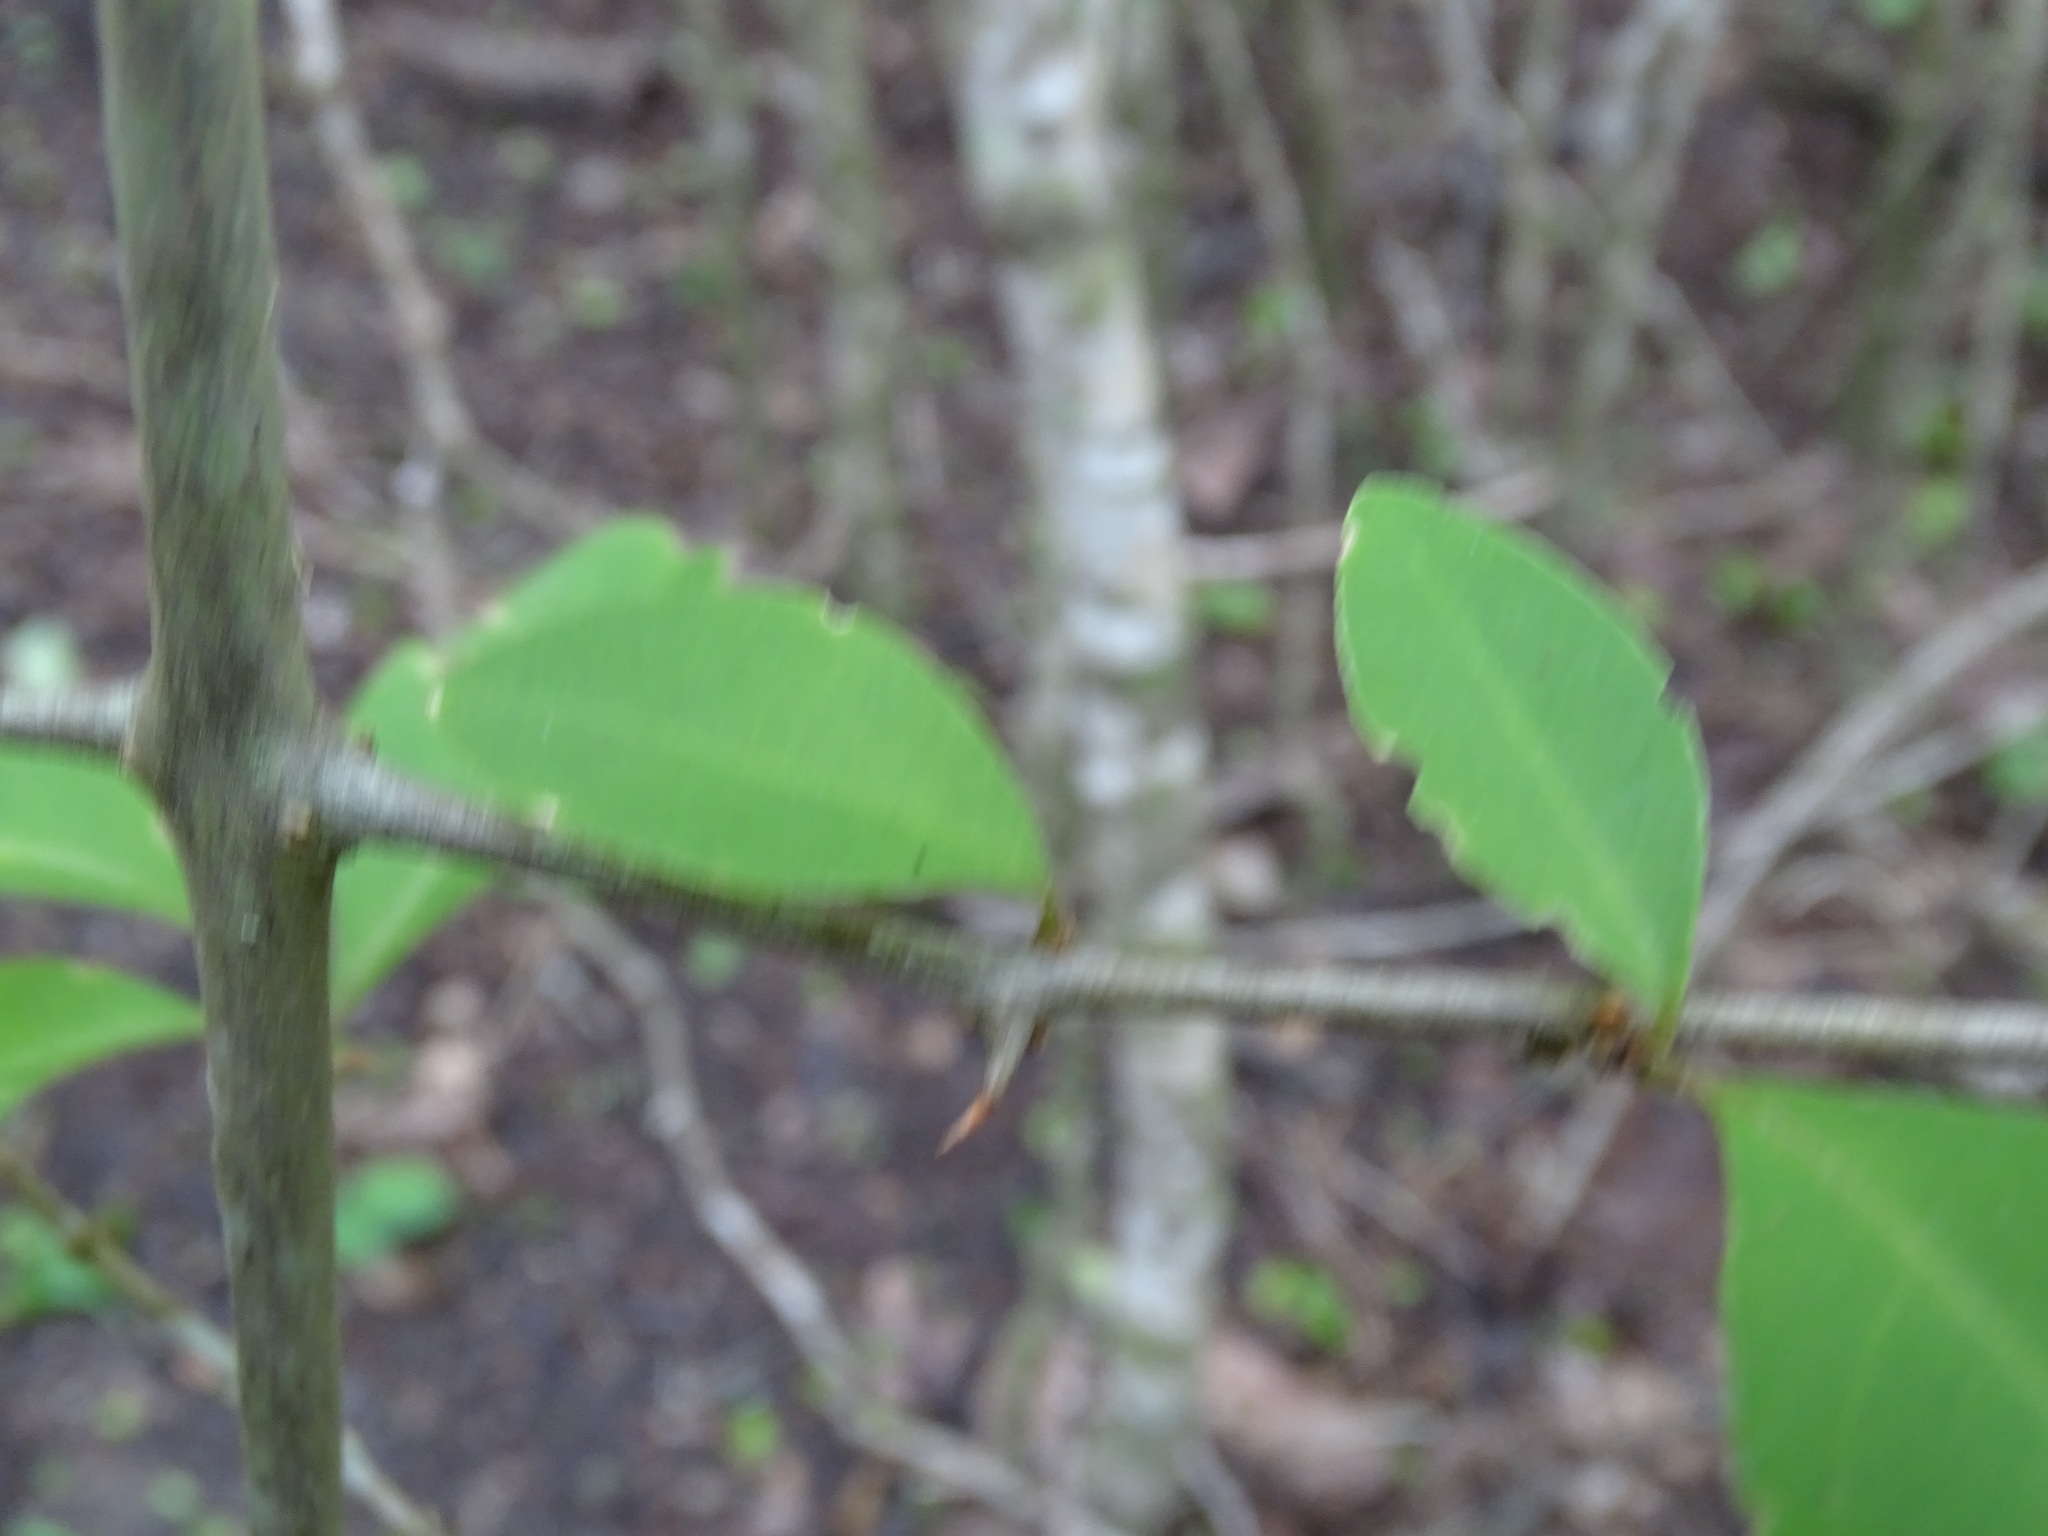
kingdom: Plantae
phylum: Tracheophyta
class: Magnoliopsida
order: Caryophyllales
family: Nyctaginaceae
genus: Pisonia
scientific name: Pisonia aculeata
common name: Cockspur vine
